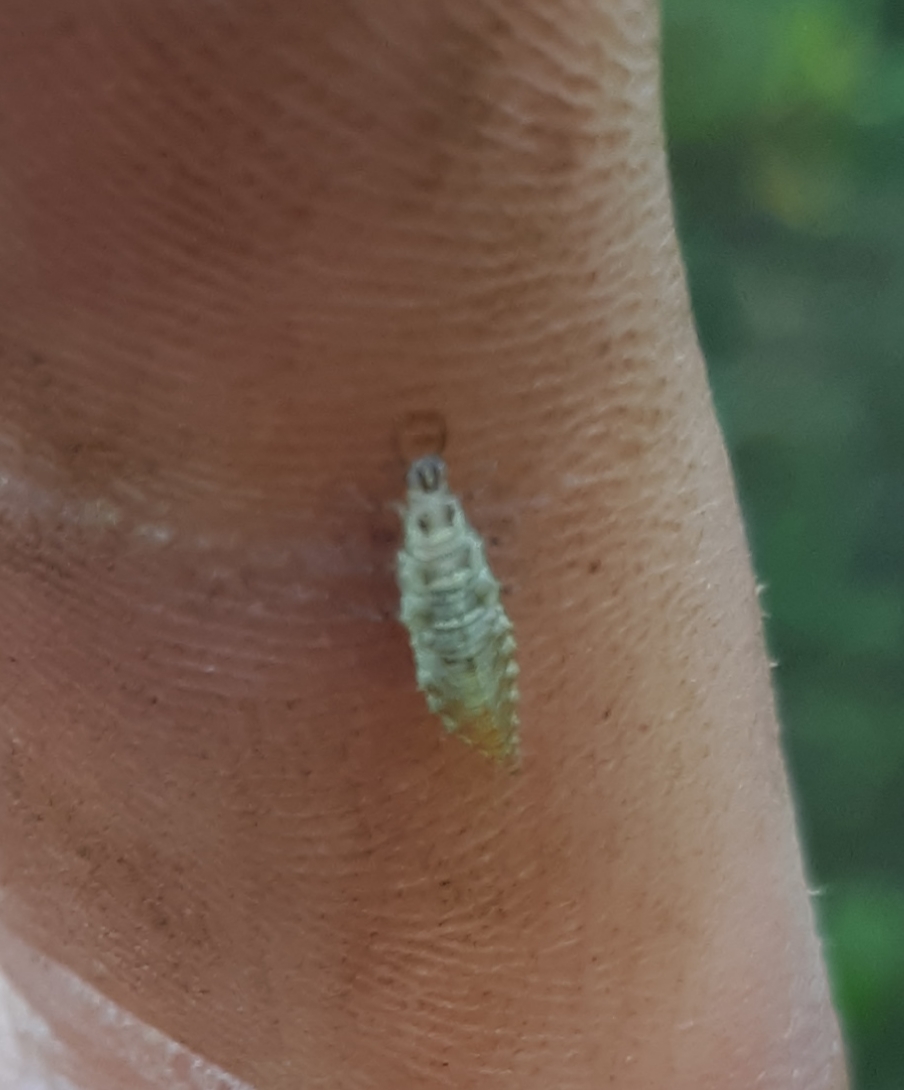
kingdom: Animalia
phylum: Arthropoda
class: Insecta
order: Neuroptera
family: Chrysopidae
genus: Chrysoperla
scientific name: Chrysoperla
